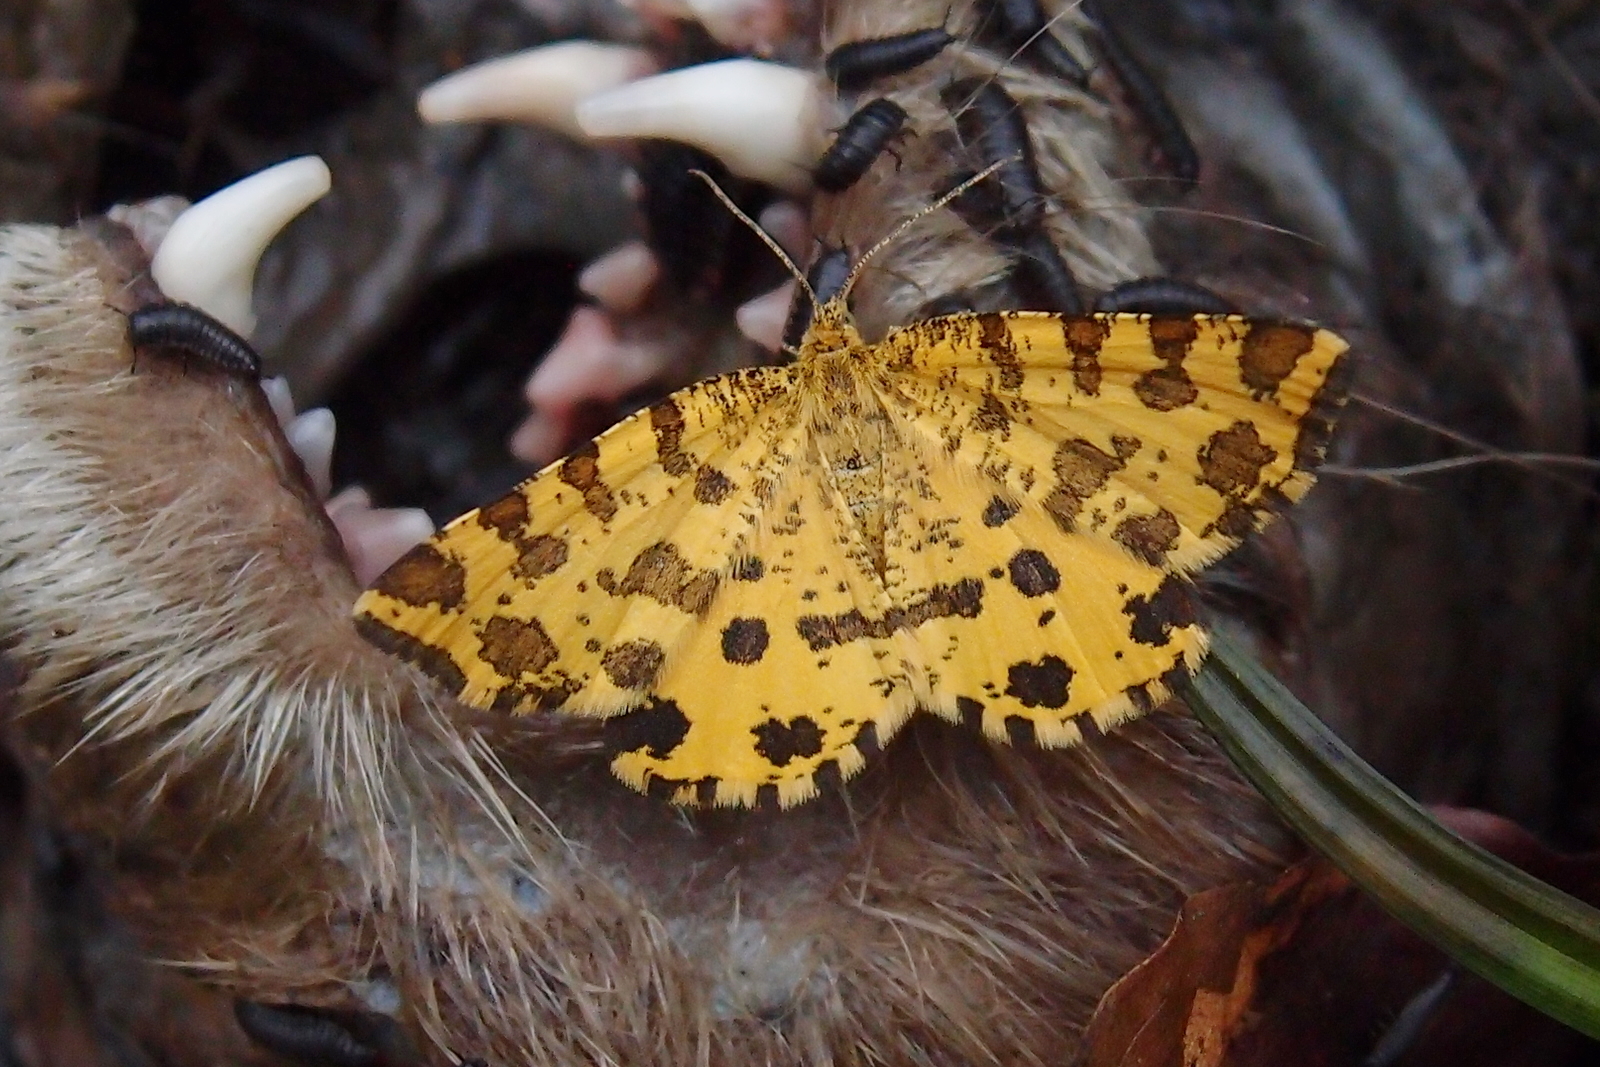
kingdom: Animalia
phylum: Arthropoda
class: Insecta
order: Lepidoptera
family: Geometridae
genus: Pseudopanthera
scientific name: Pseudopanthera macularia
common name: Speckled yellow
